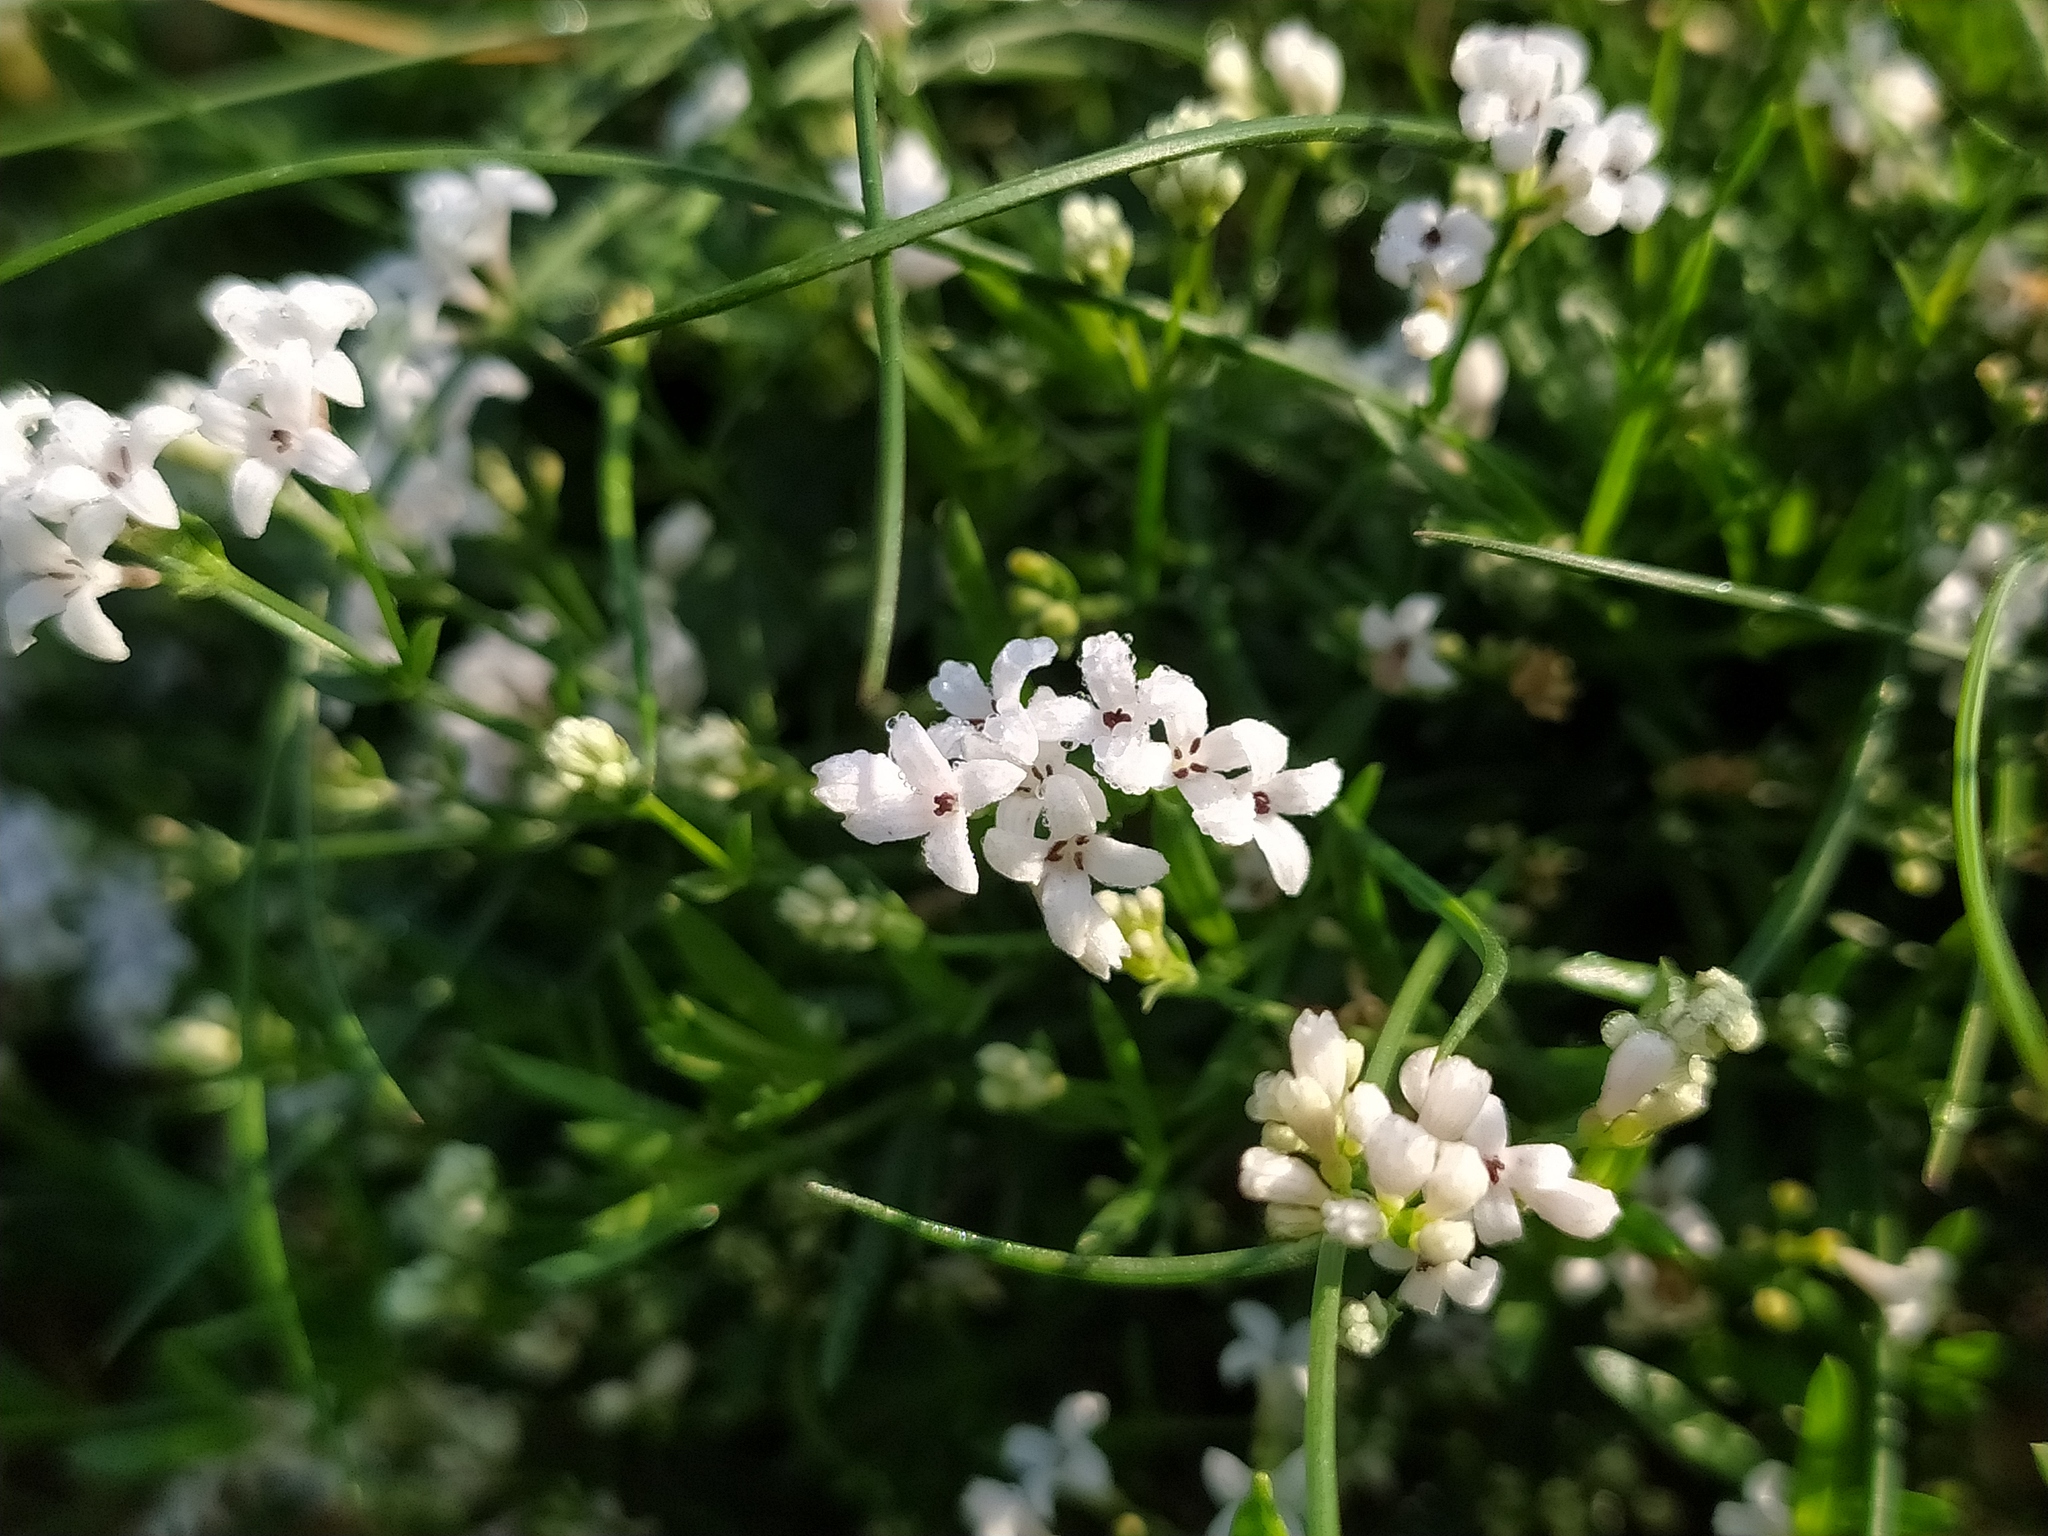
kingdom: Plantae
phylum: Tracheophyta
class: Magnoliopsida
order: Gentianales
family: Rubiaceae
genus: Cynanchica
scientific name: Cynanchica pyrenaica
